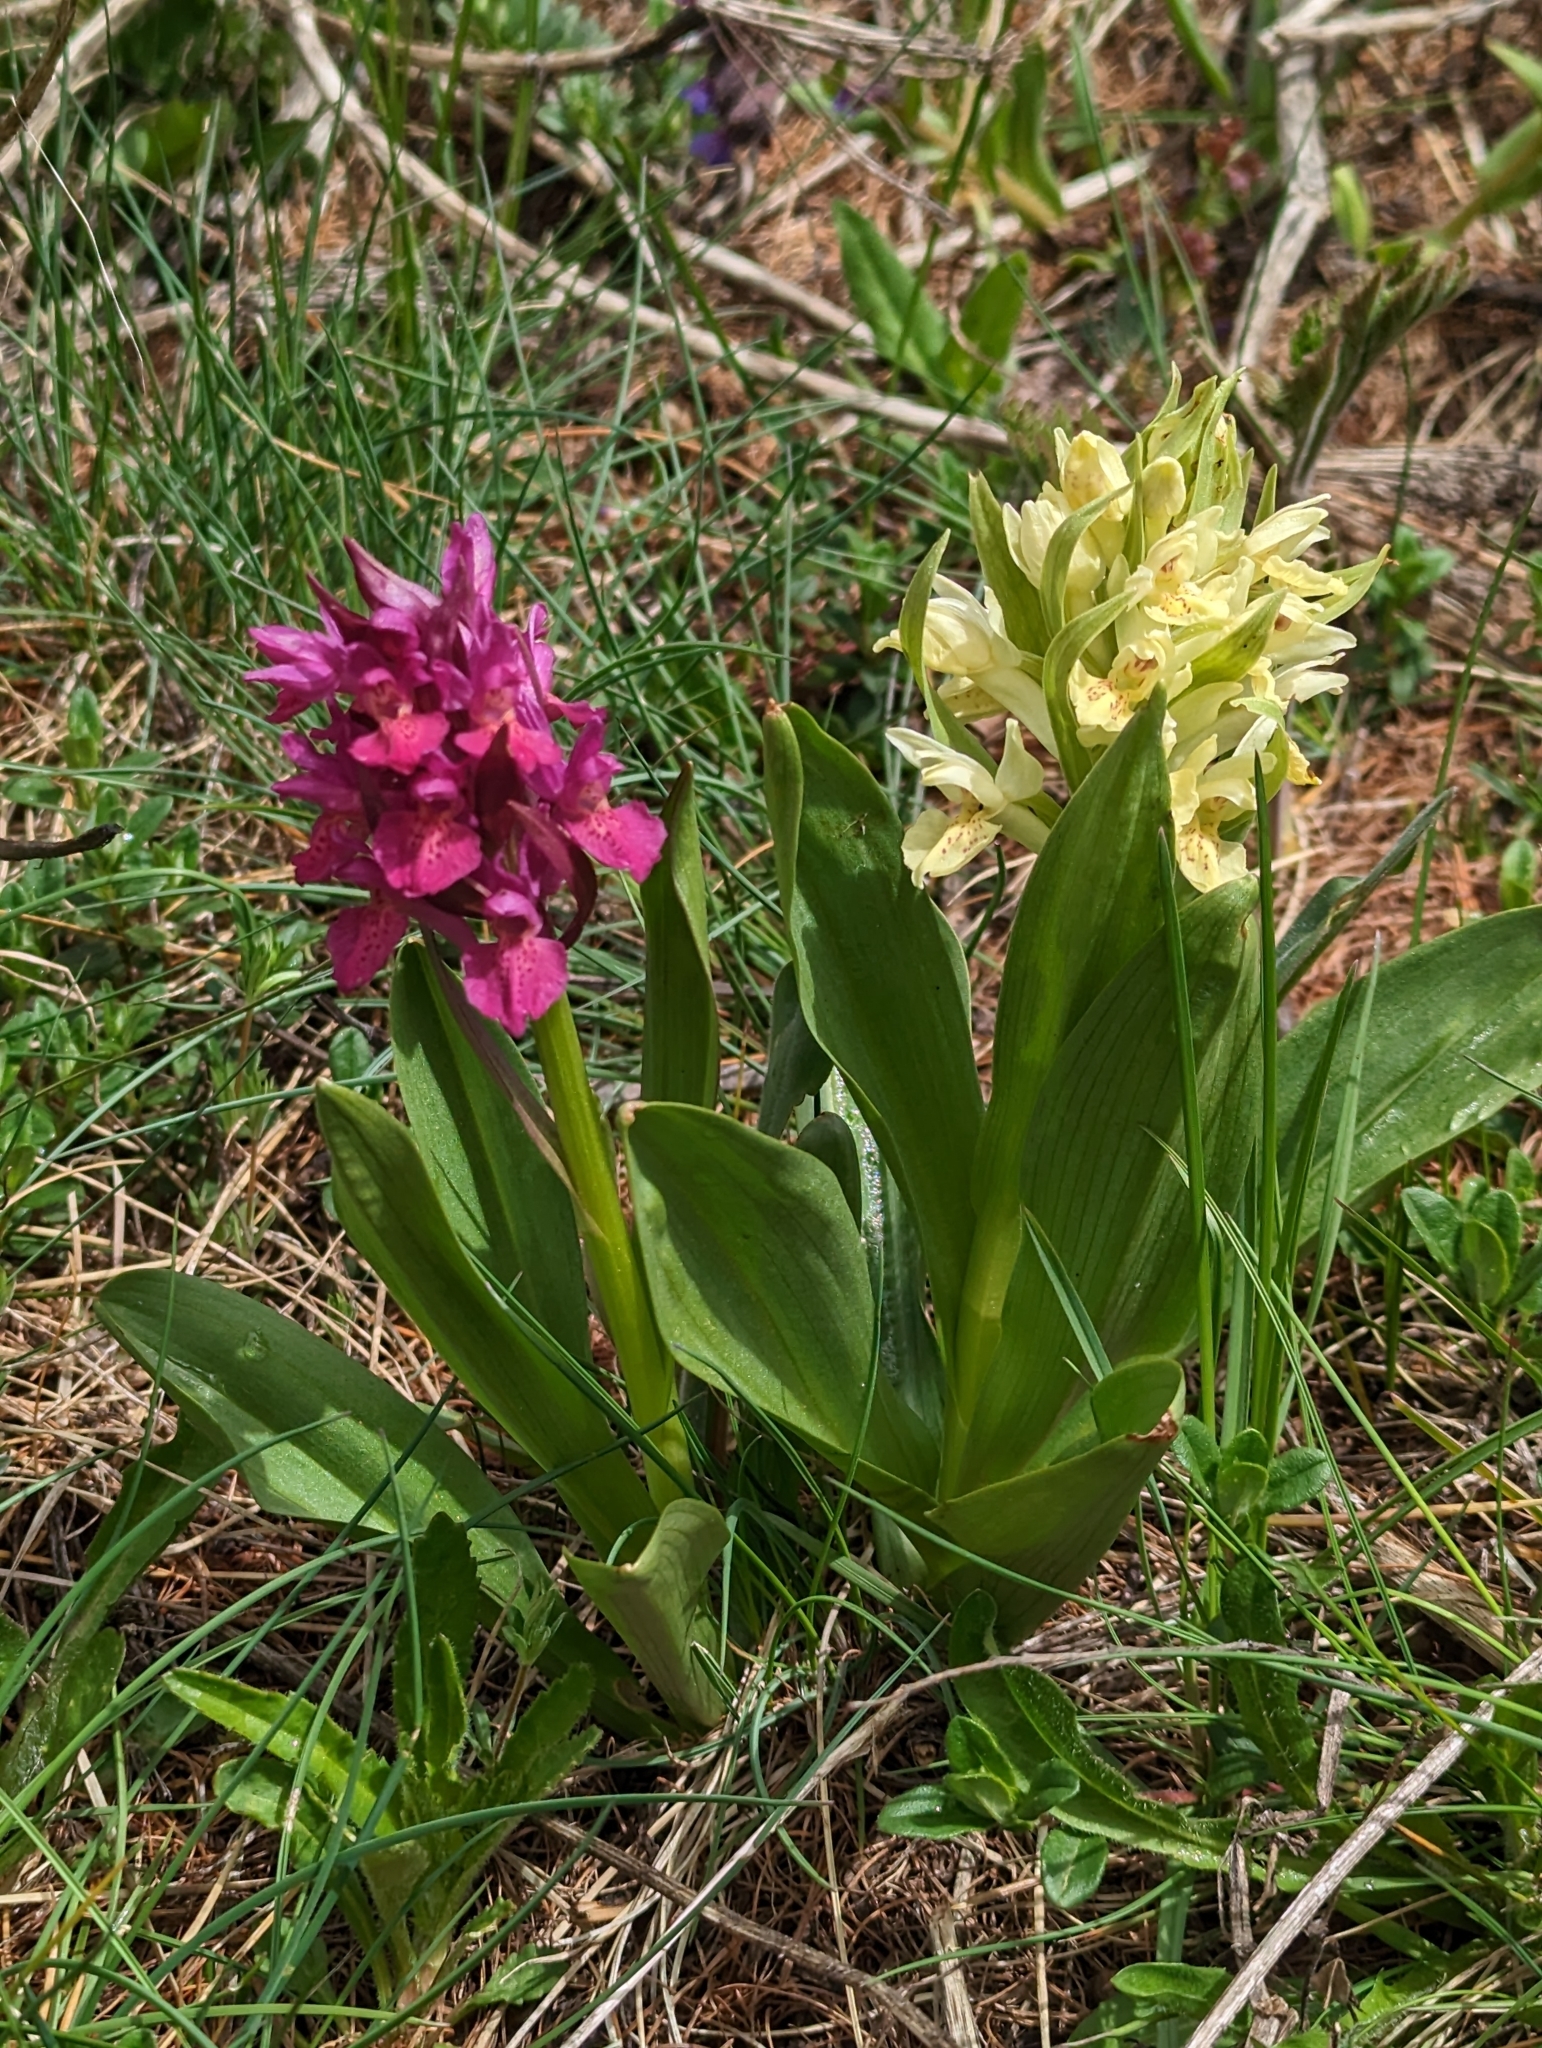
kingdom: Plantae
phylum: Tracheophyta
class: Liliopsida
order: Asparagales
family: Orchidaceae
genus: Dactylorhiza
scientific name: Dactylorhiza sambucina
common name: Elder-flowered orchid
